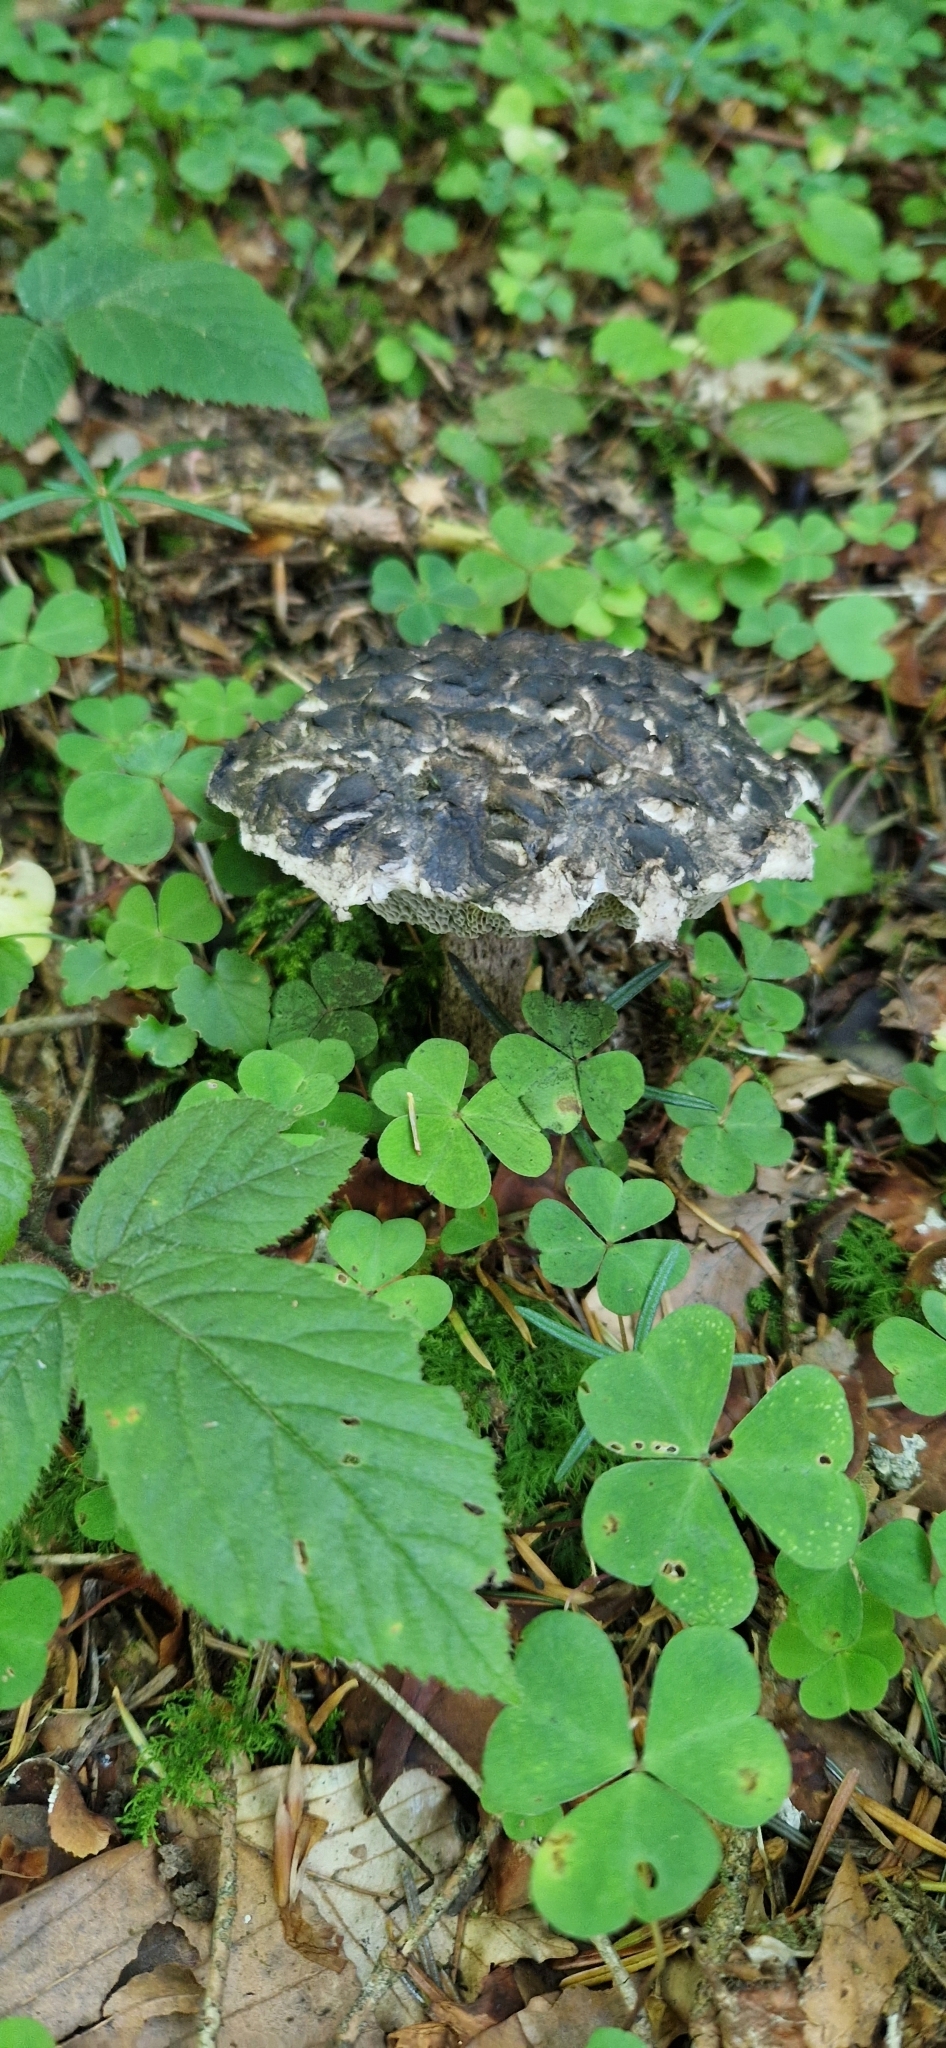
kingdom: Fungi
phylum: Basidiomycota
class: Agaricomycetes
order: Boletales
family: Boletaceae
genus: Strobilomyces
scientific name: Strobilomyces strobilaceus
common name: Old man of the woods
